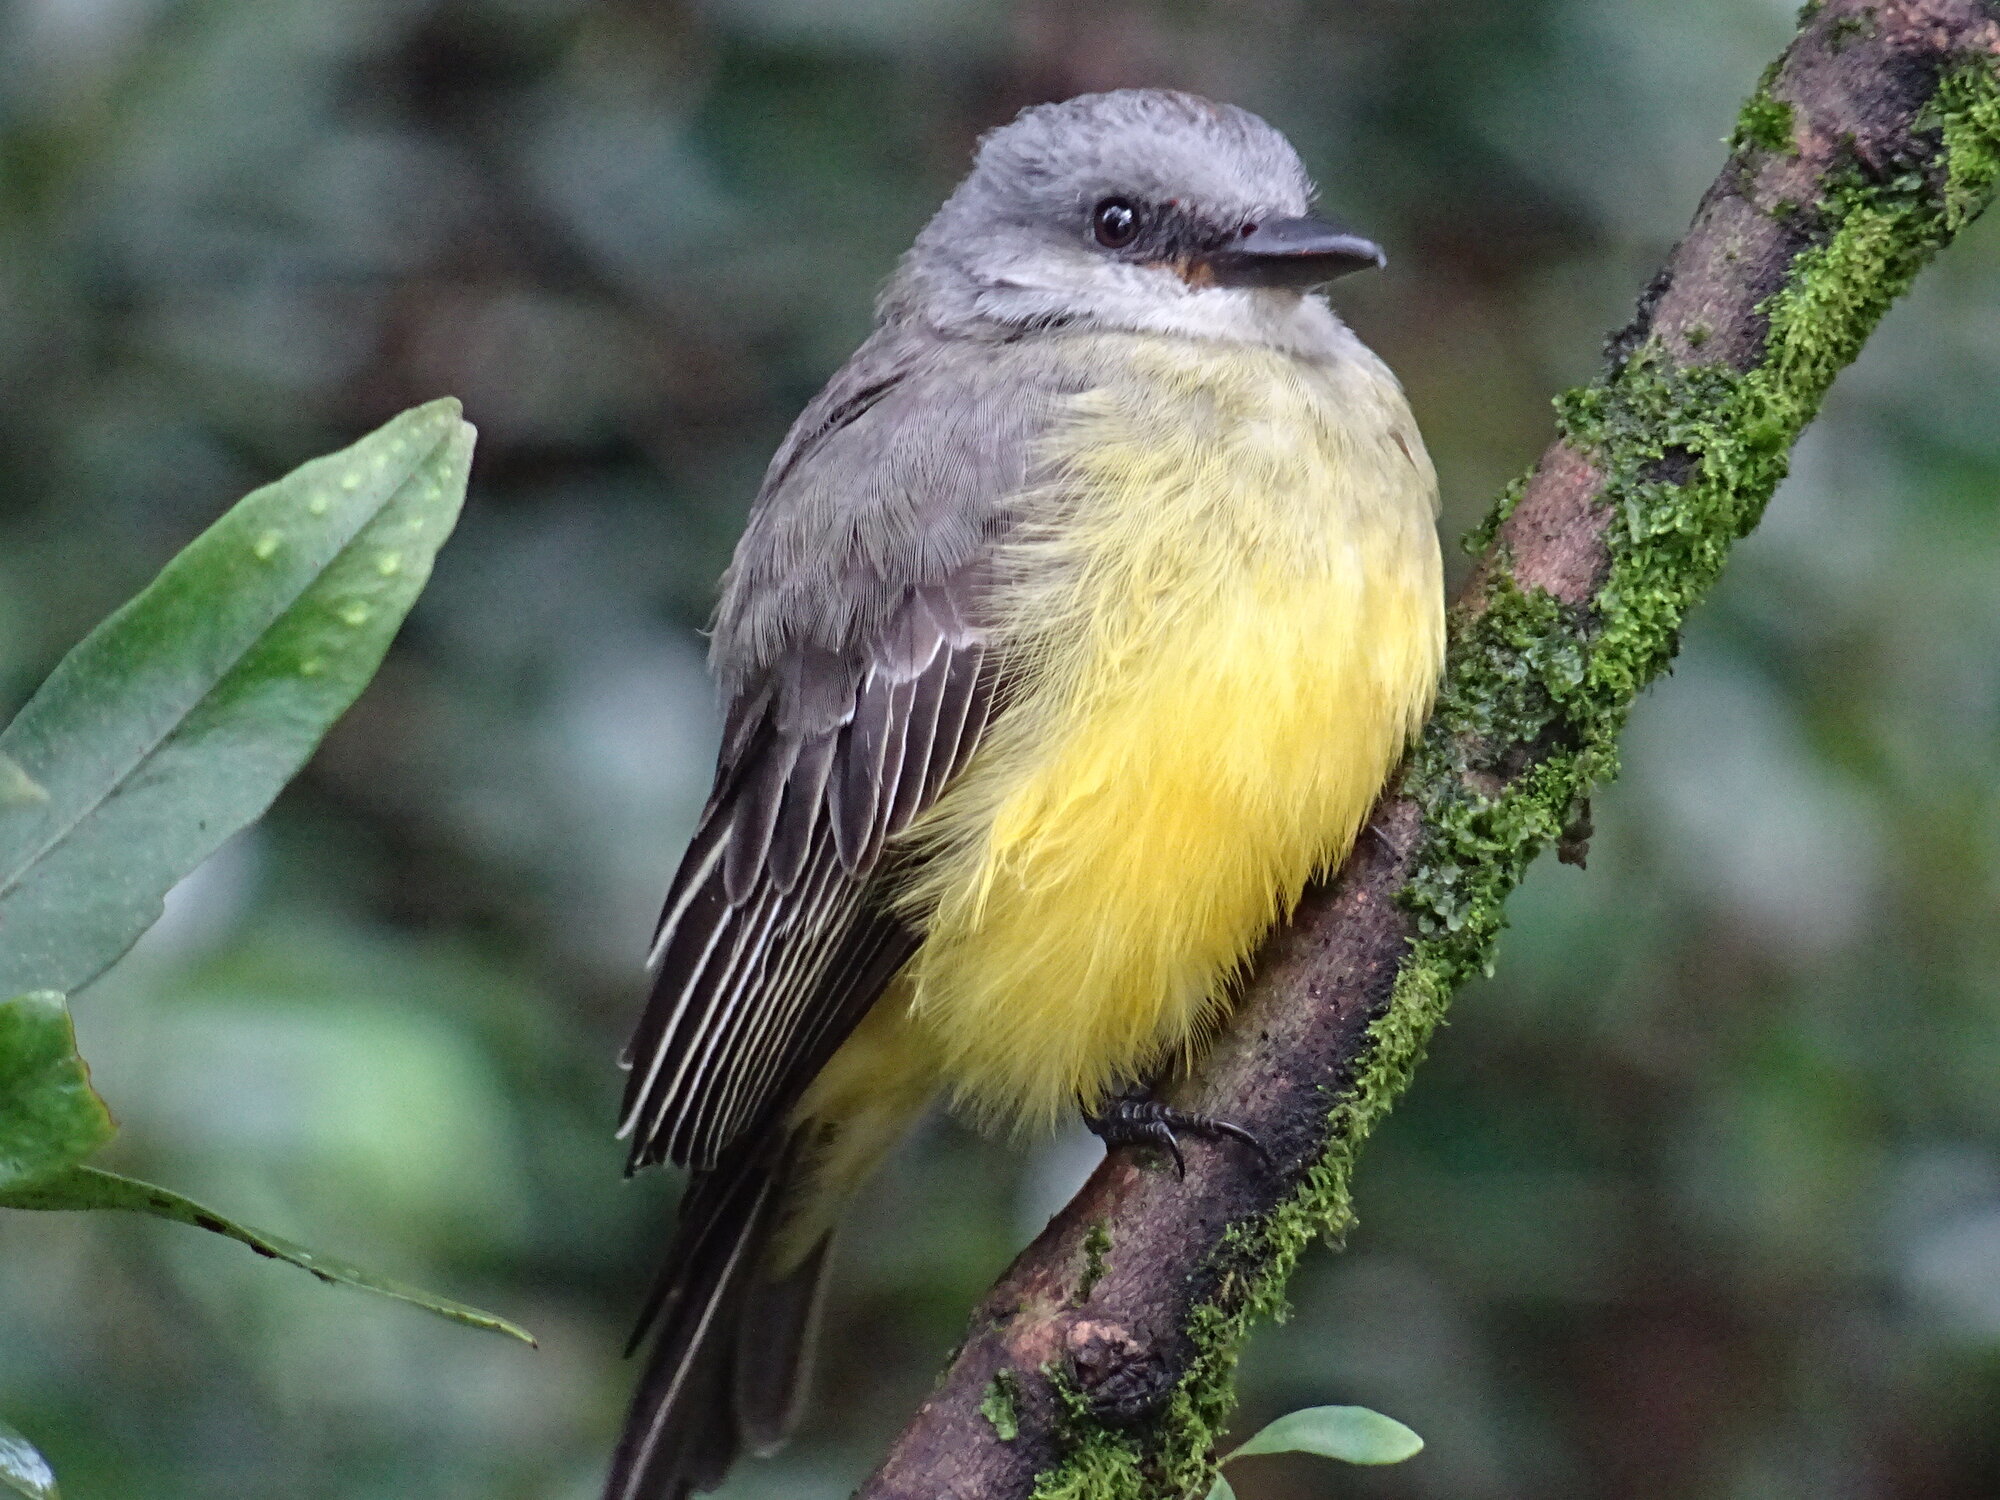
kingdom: Animalia
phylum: Chordata
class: Aves
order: Passeriformes
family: Tyrannidae
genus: Tyrannus
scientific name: Tyrannus melancholicus
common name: Tropical kingbird
